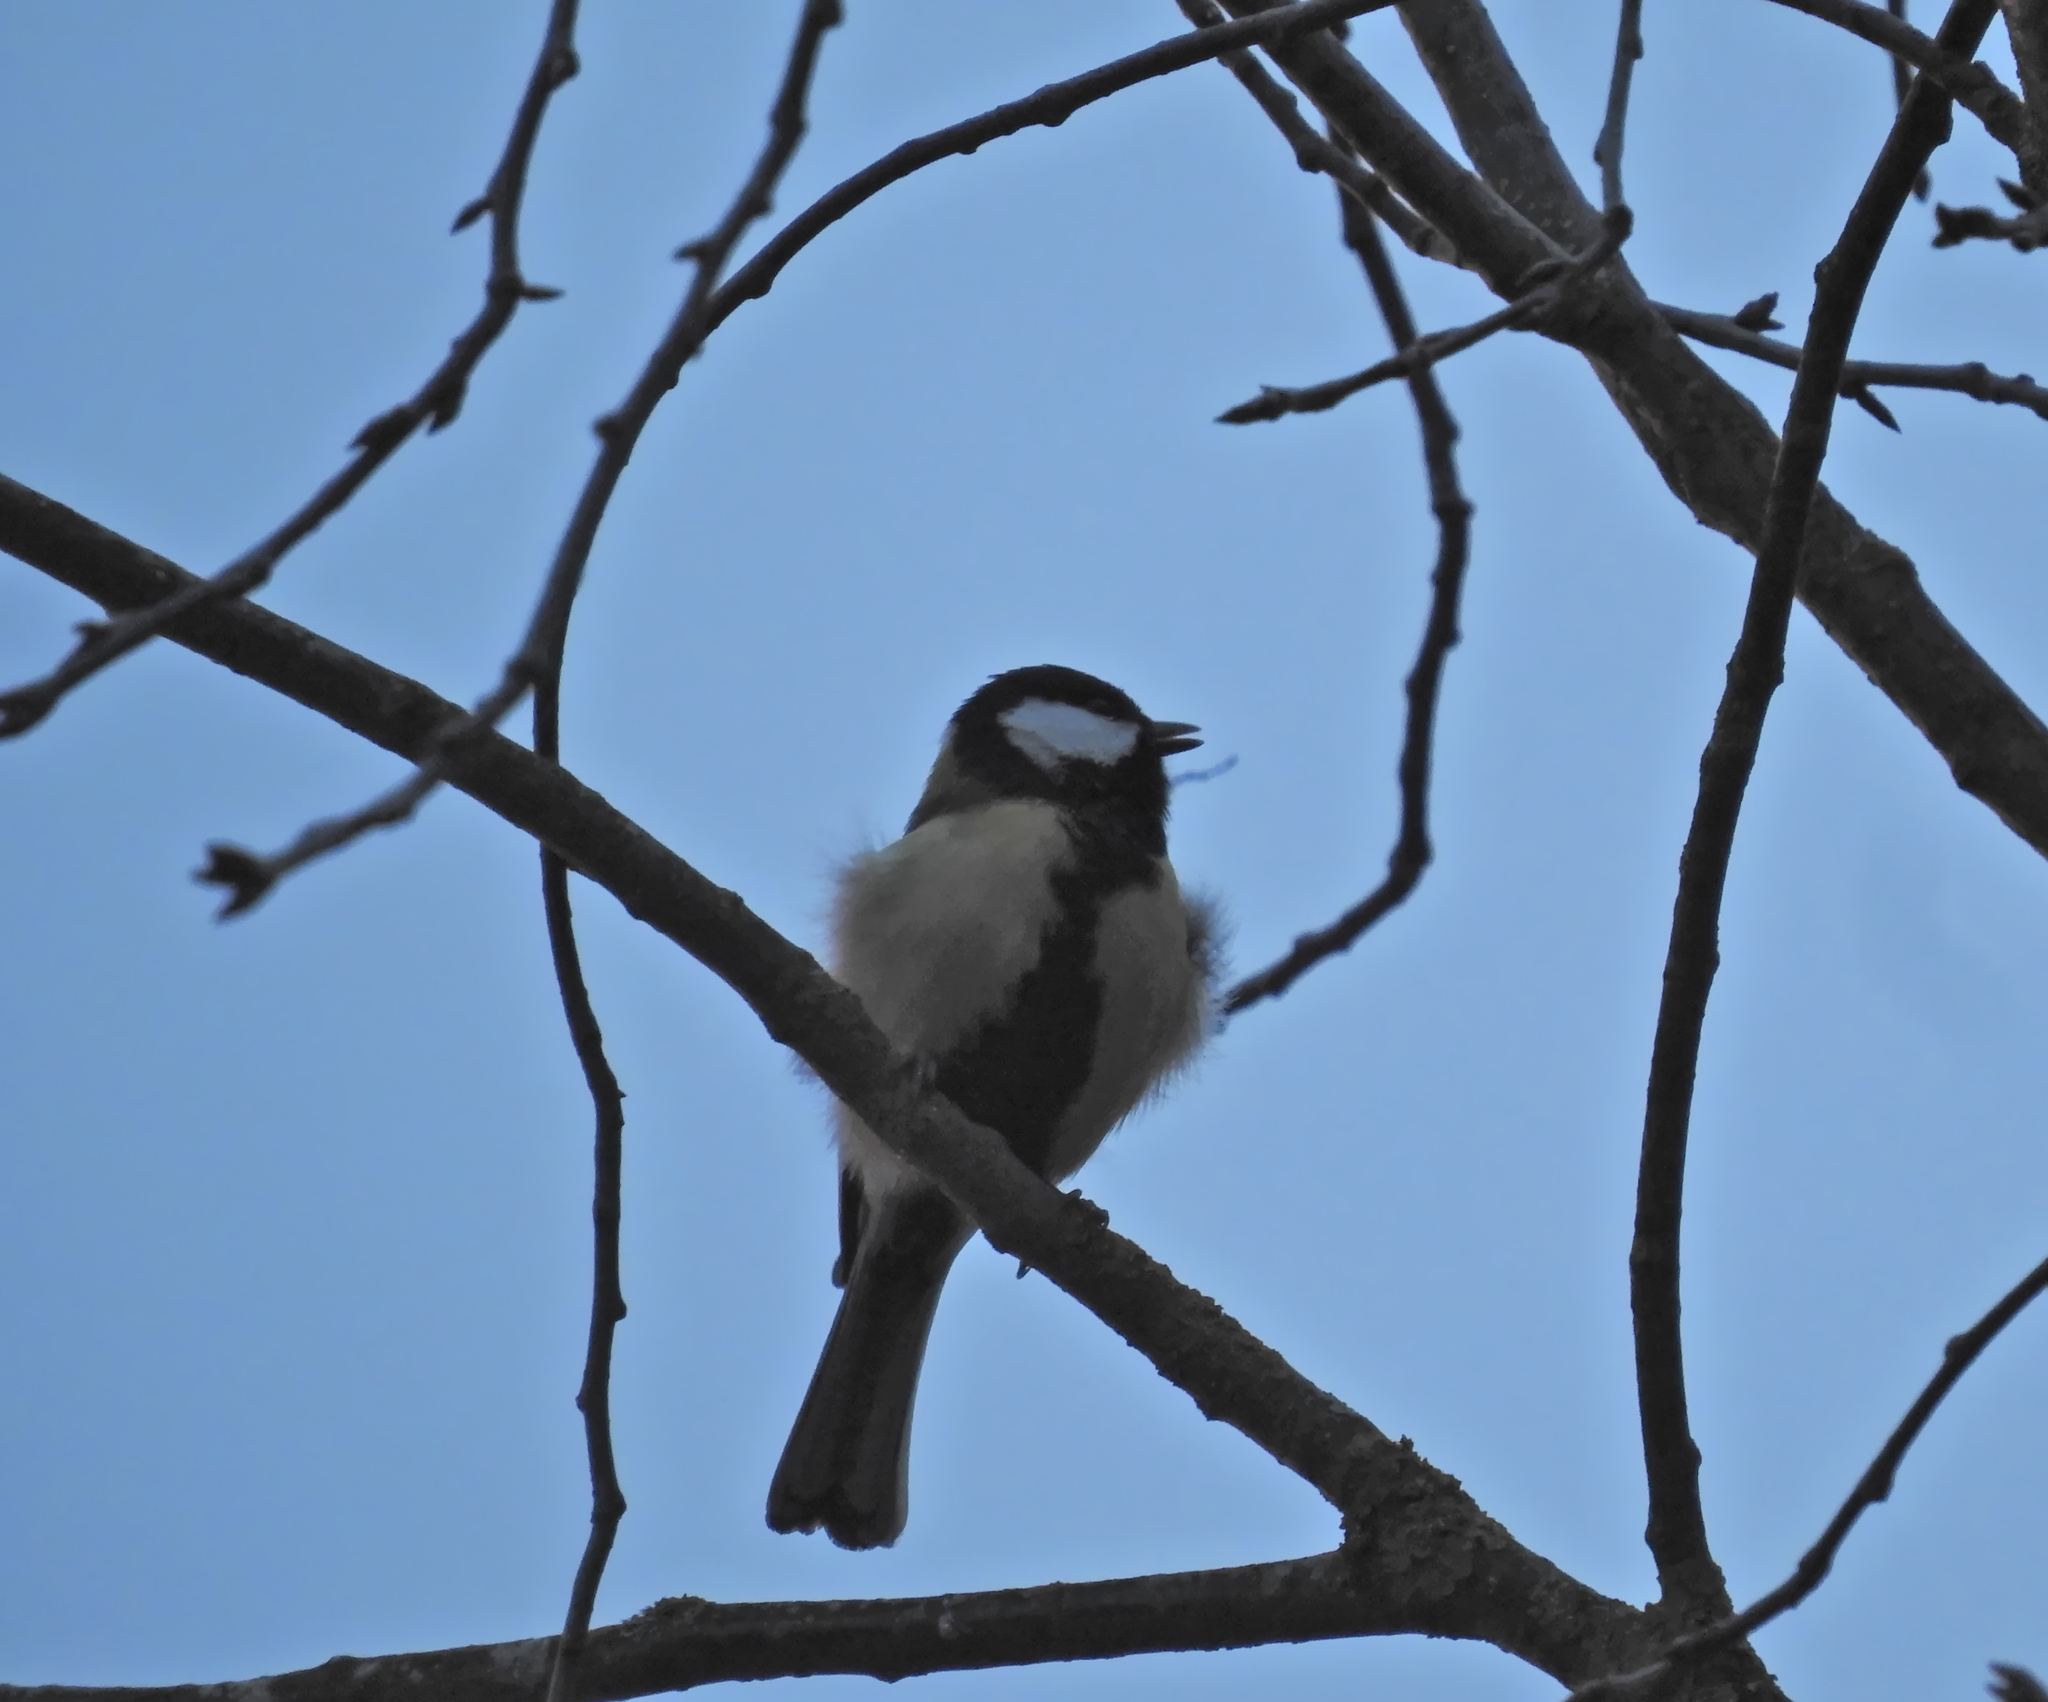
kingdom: Animalia
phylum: Chordata
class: Aves
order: Passeriformes
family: Paridae
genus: Parus
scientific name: Parus major
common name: Great tit
